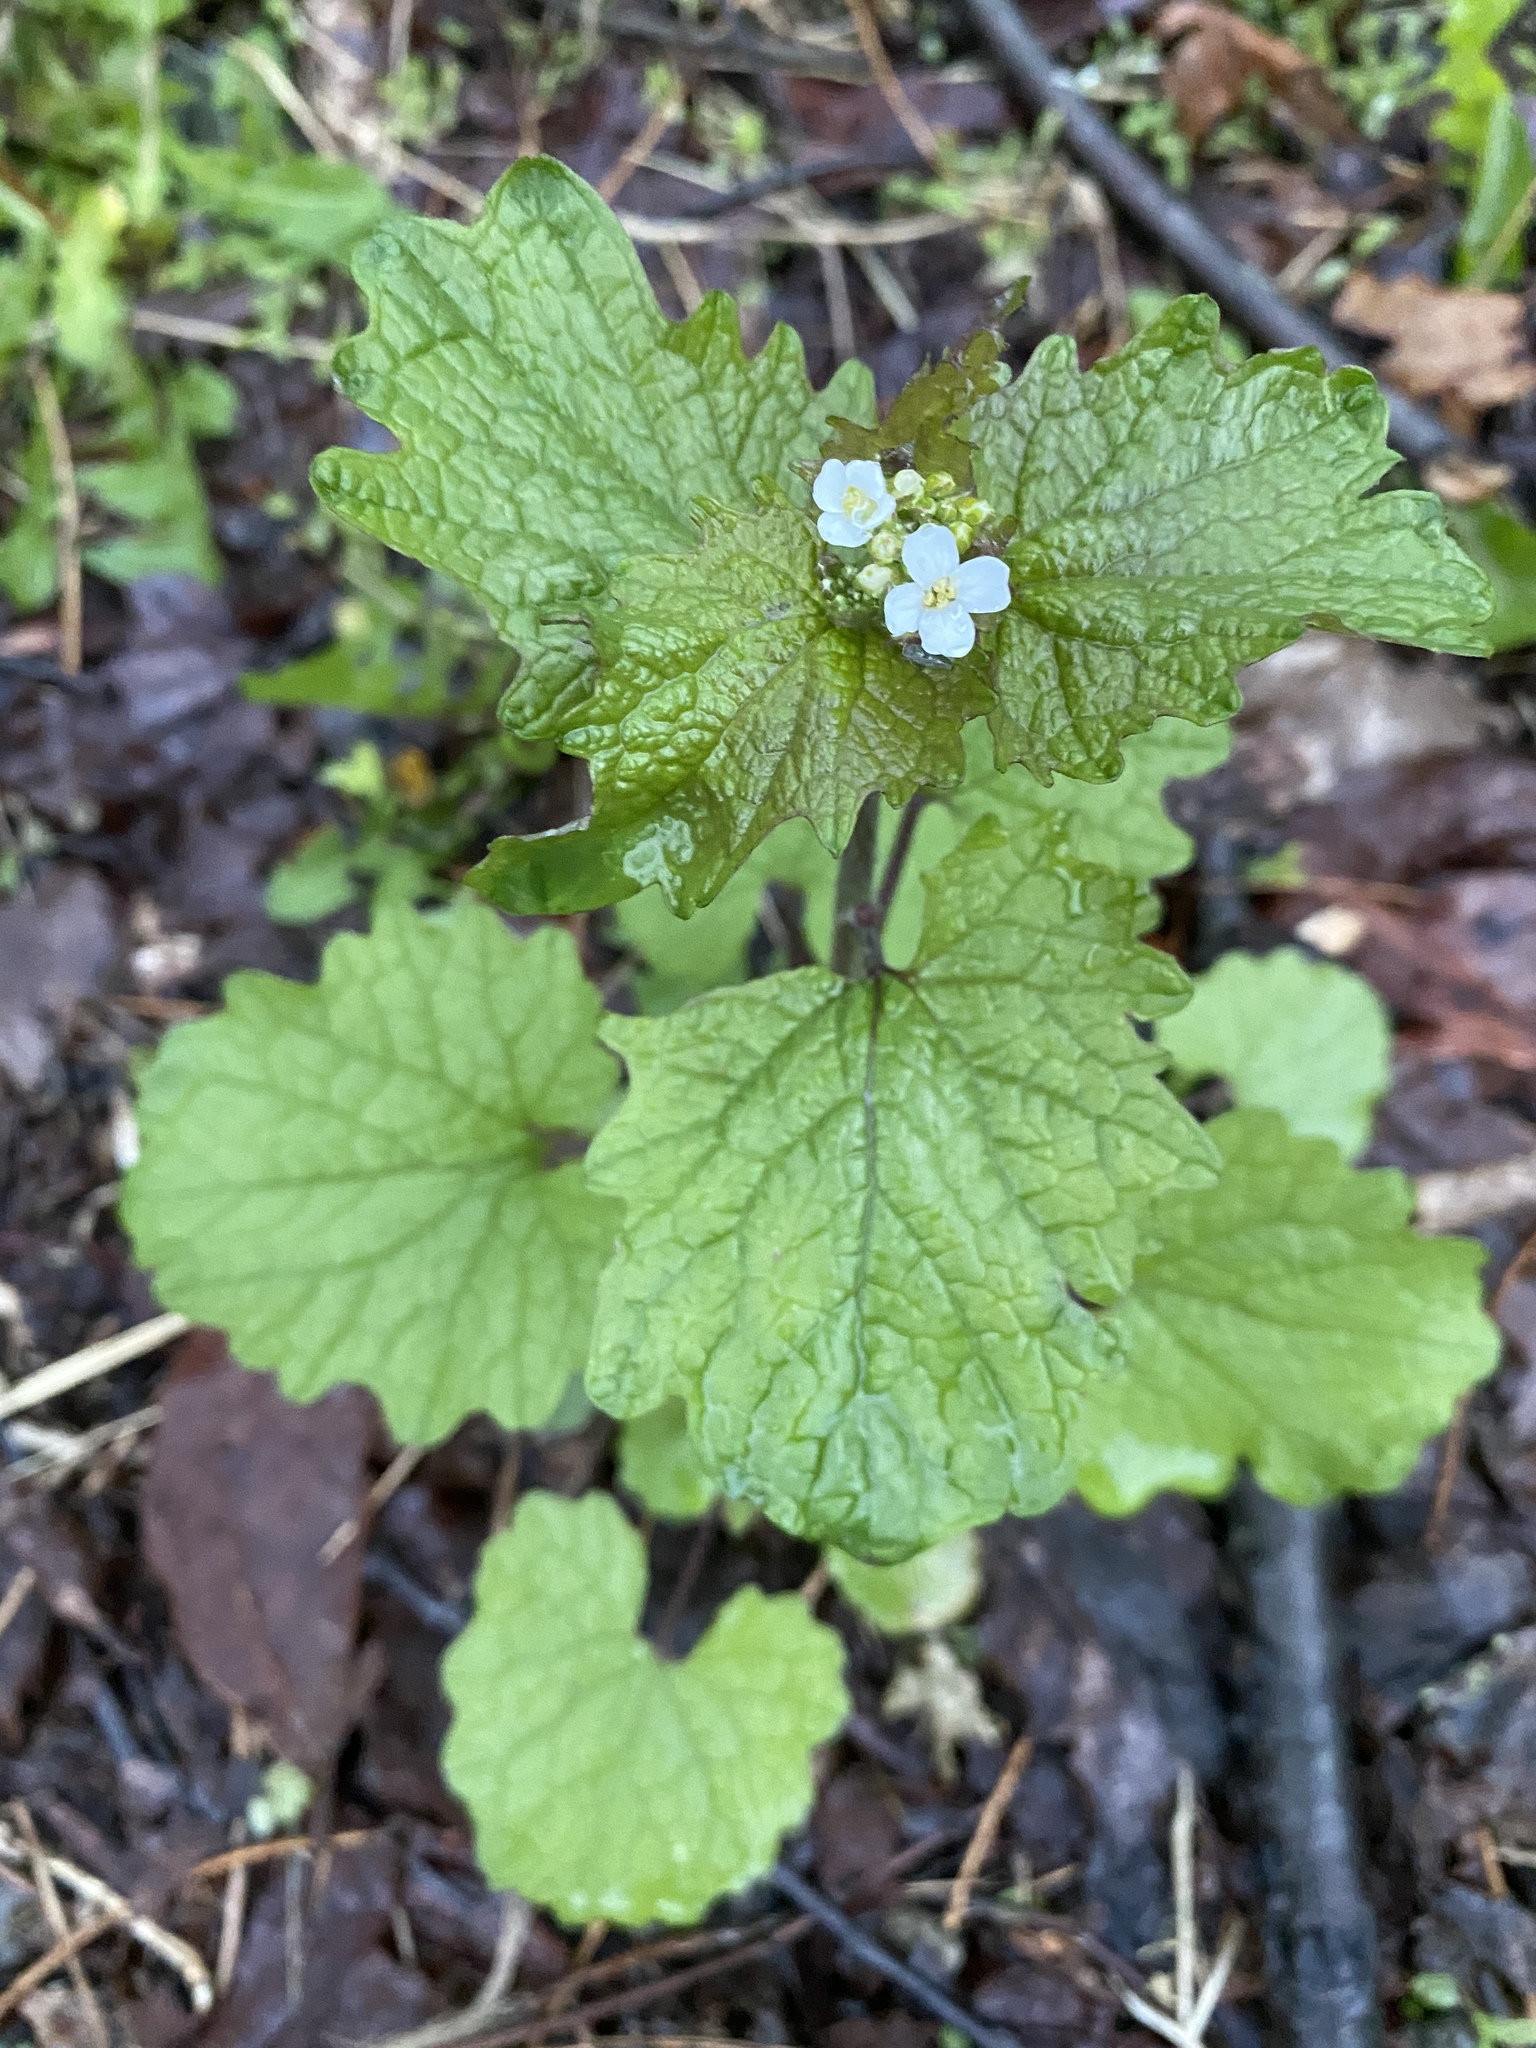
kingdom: Plantae
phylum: Tracheophyta
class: Magnoliopsida
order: Brassicales
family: Brassicaceae
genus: Alliaria
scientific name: Alliaria petiolata
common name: Garlic mustard
